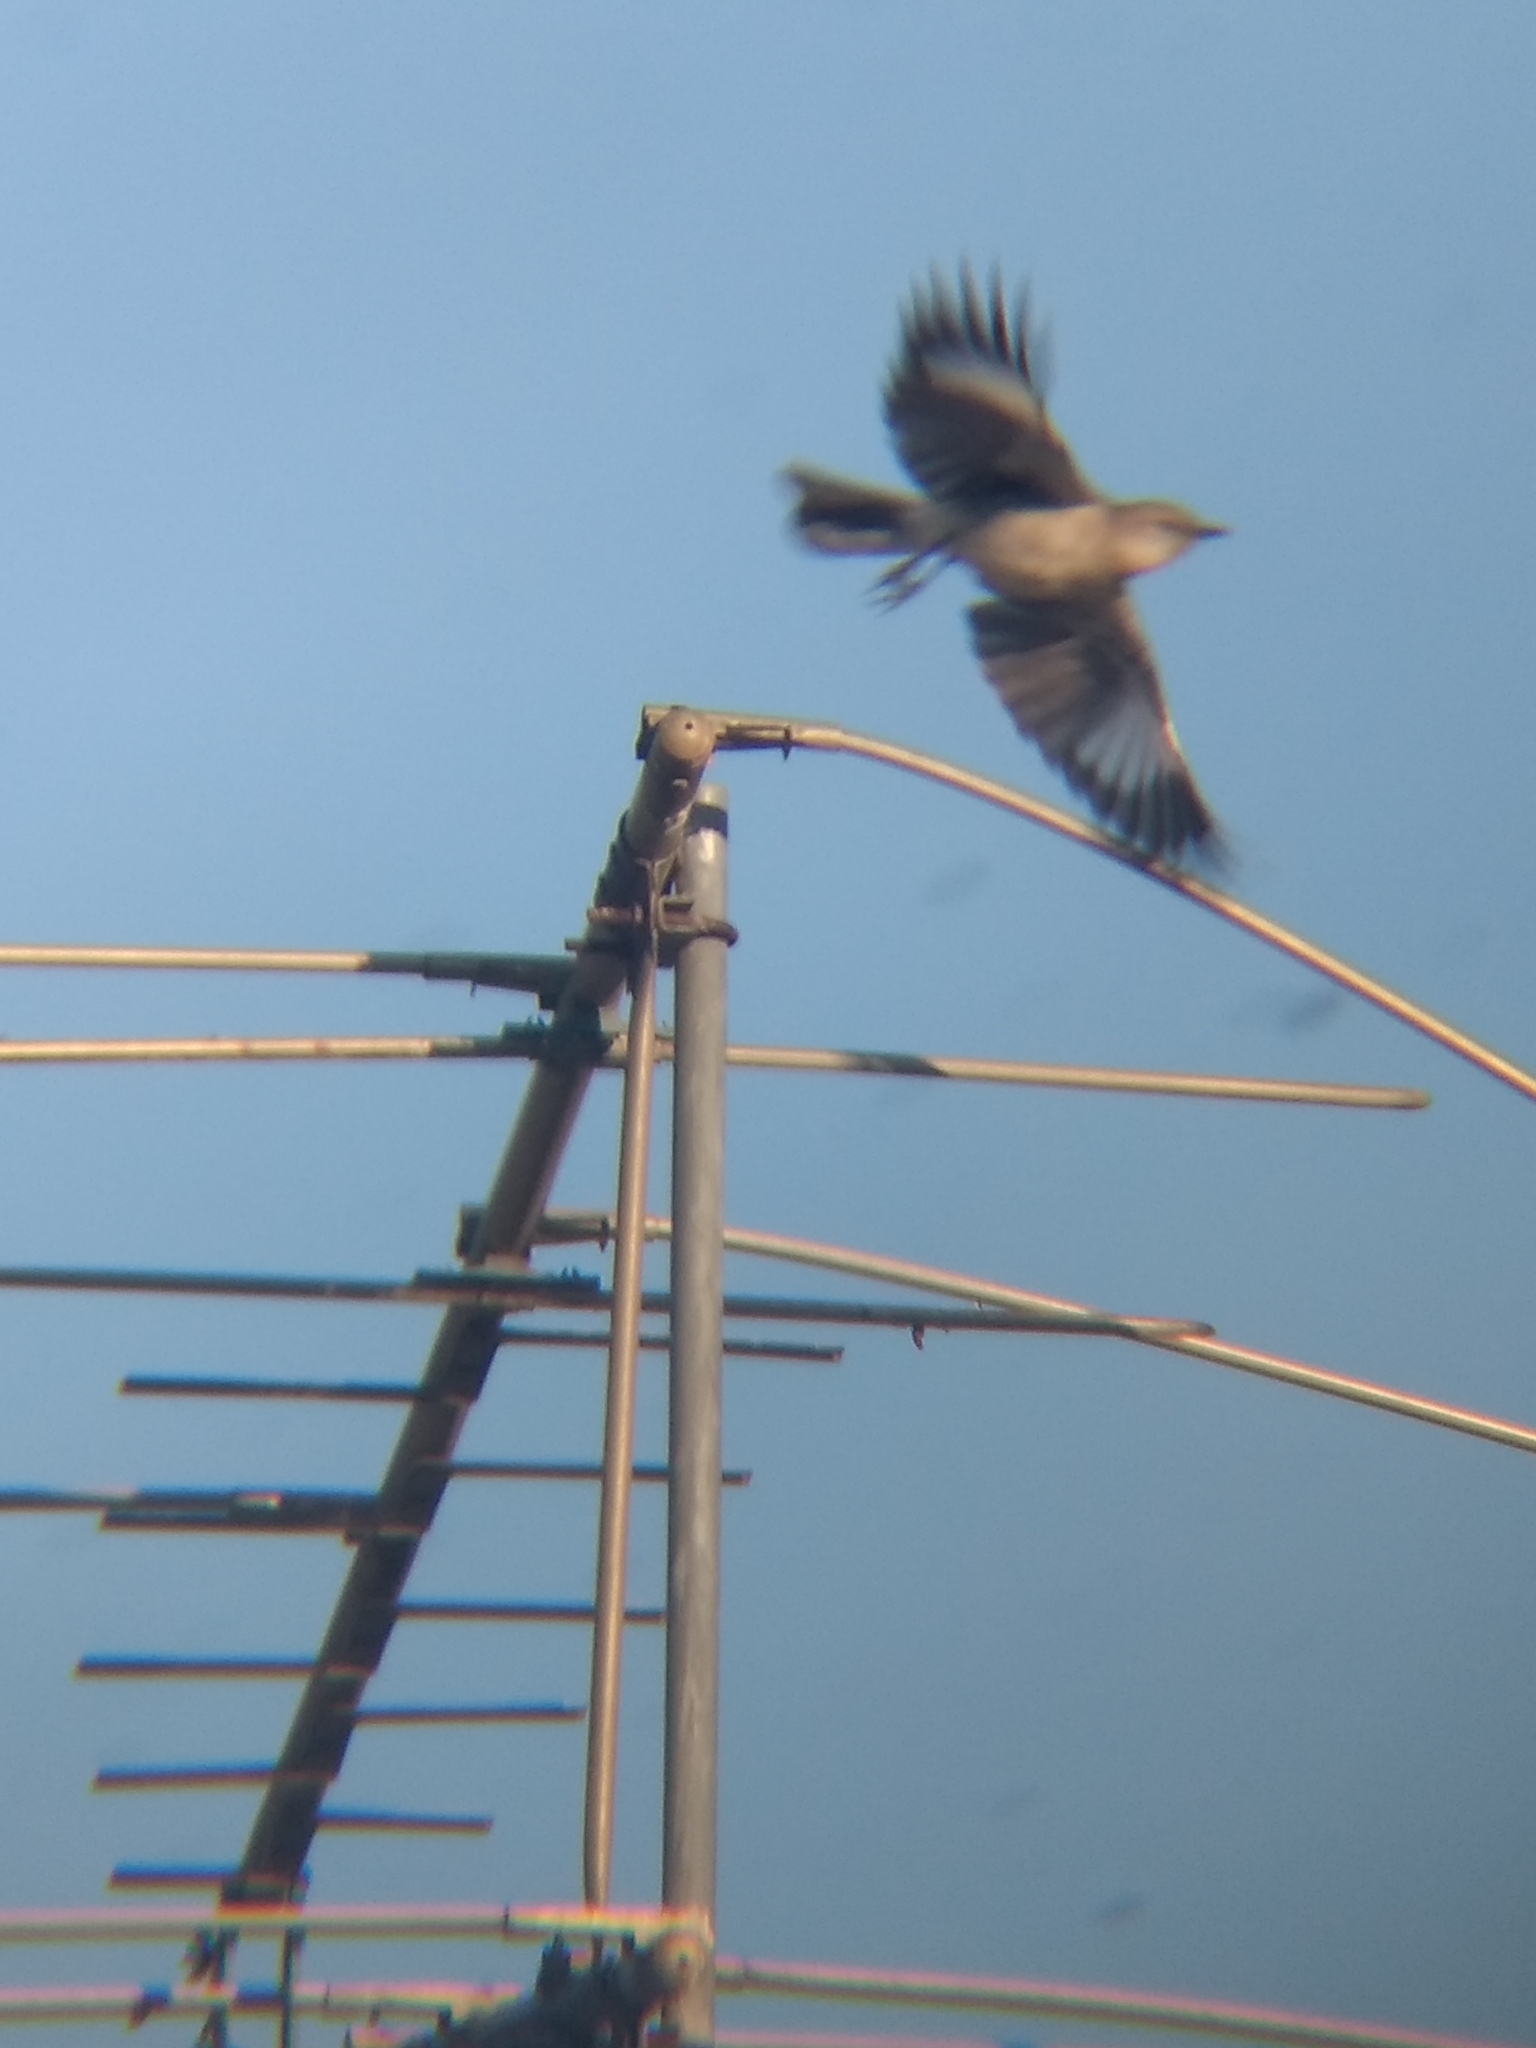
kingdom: Animalia
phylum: Chordata
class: Aves
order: Passeriformes
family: Mimidae
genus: Mimus
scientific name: Mimus polyglottos
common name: Northern mockingbird
